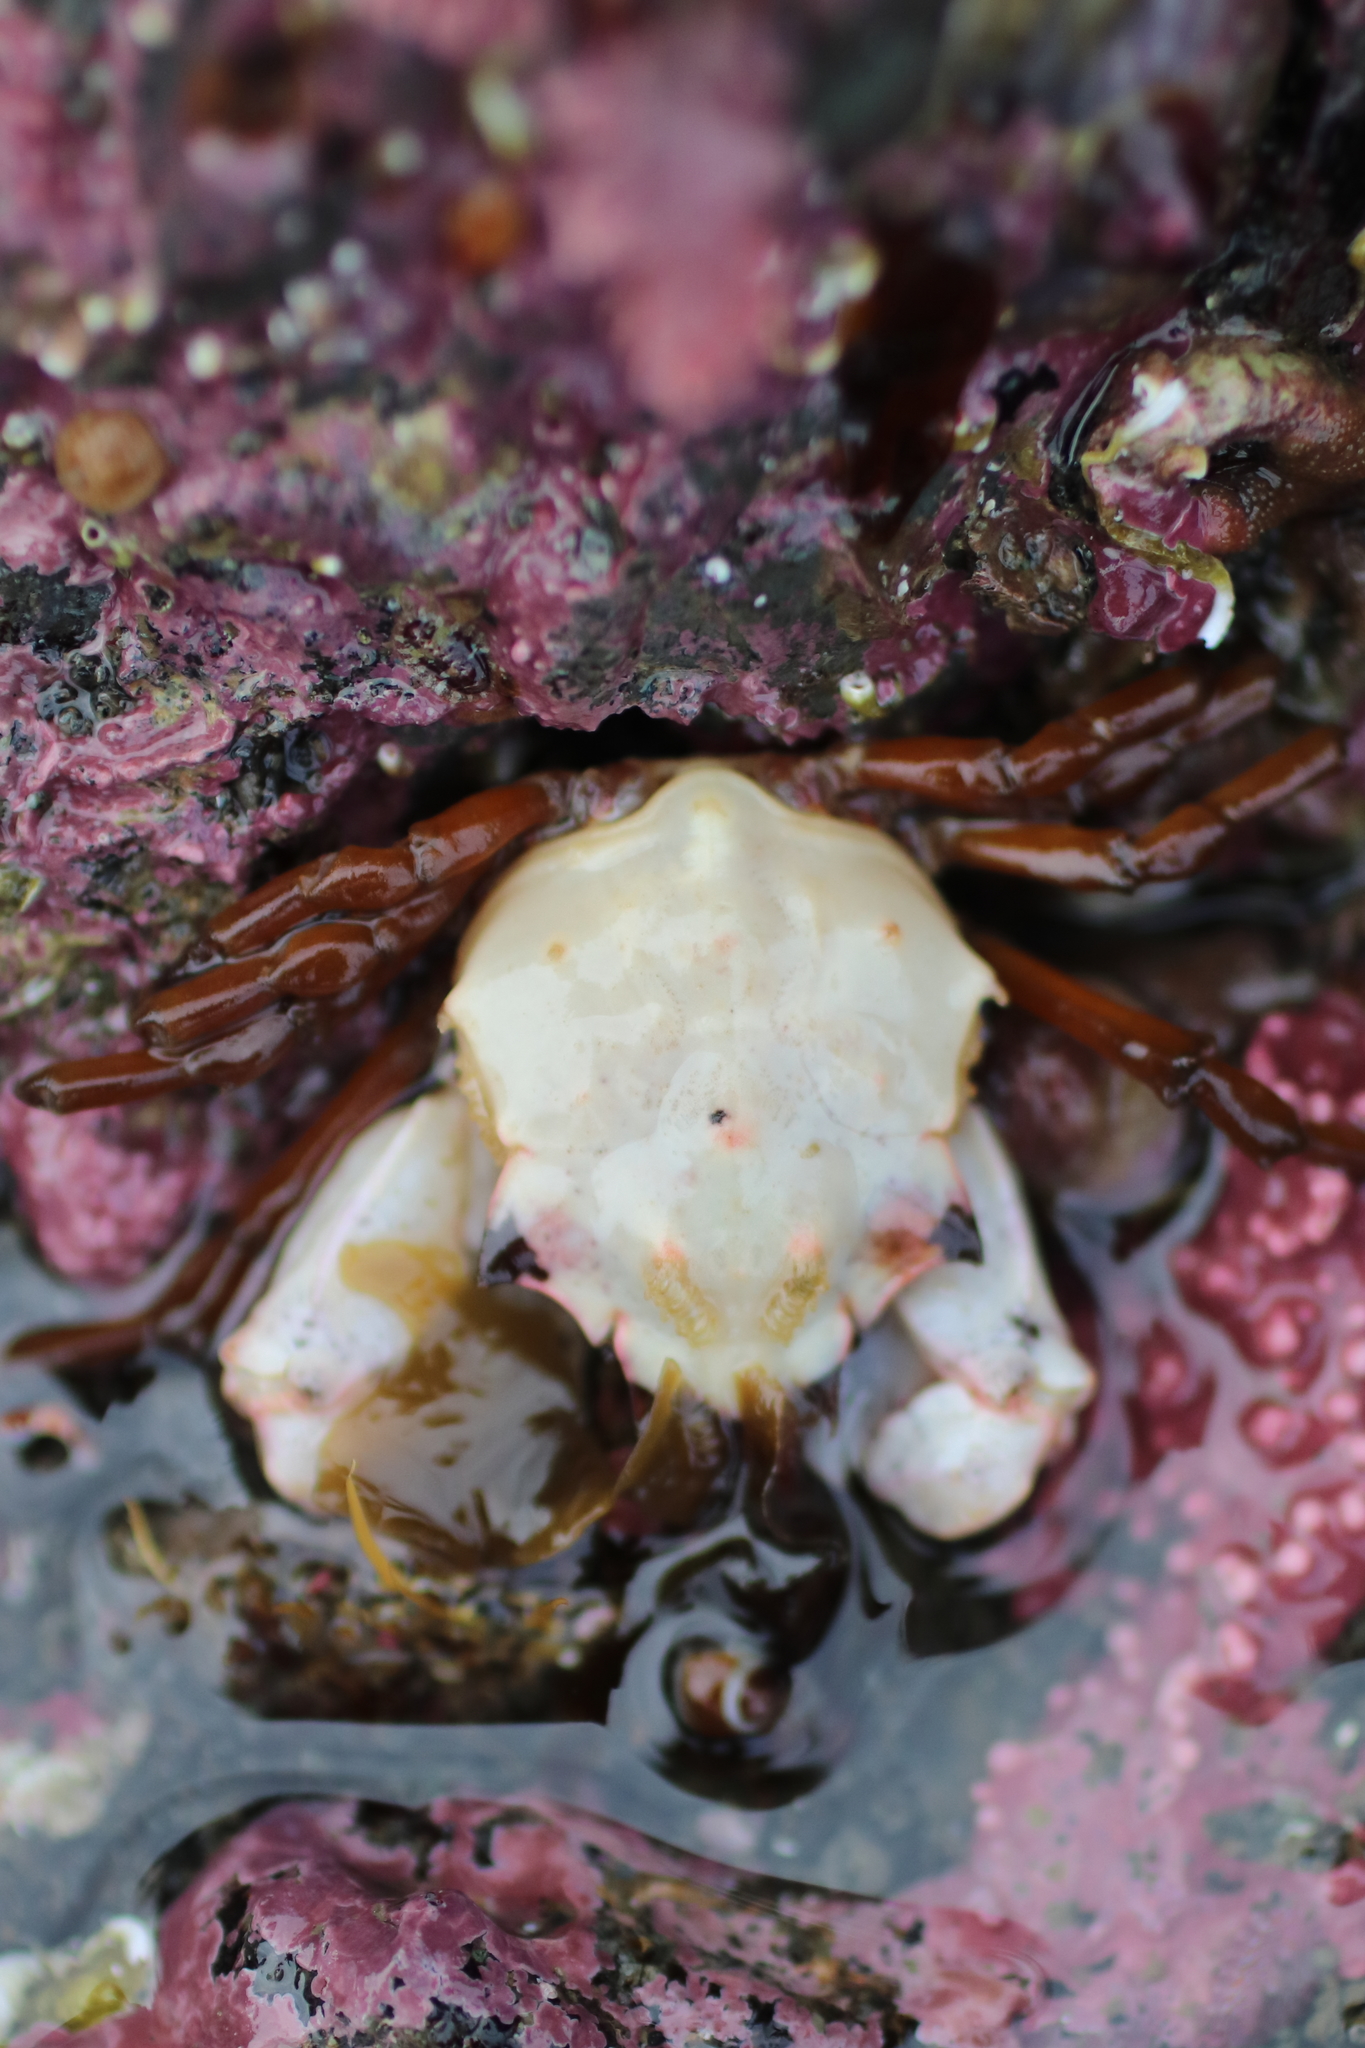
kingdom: Animalia
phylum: Arthropoda
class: Malacostraca
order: Decapoda
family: Epialtidae
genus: Pugettia
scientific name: Pugettia gracilis
